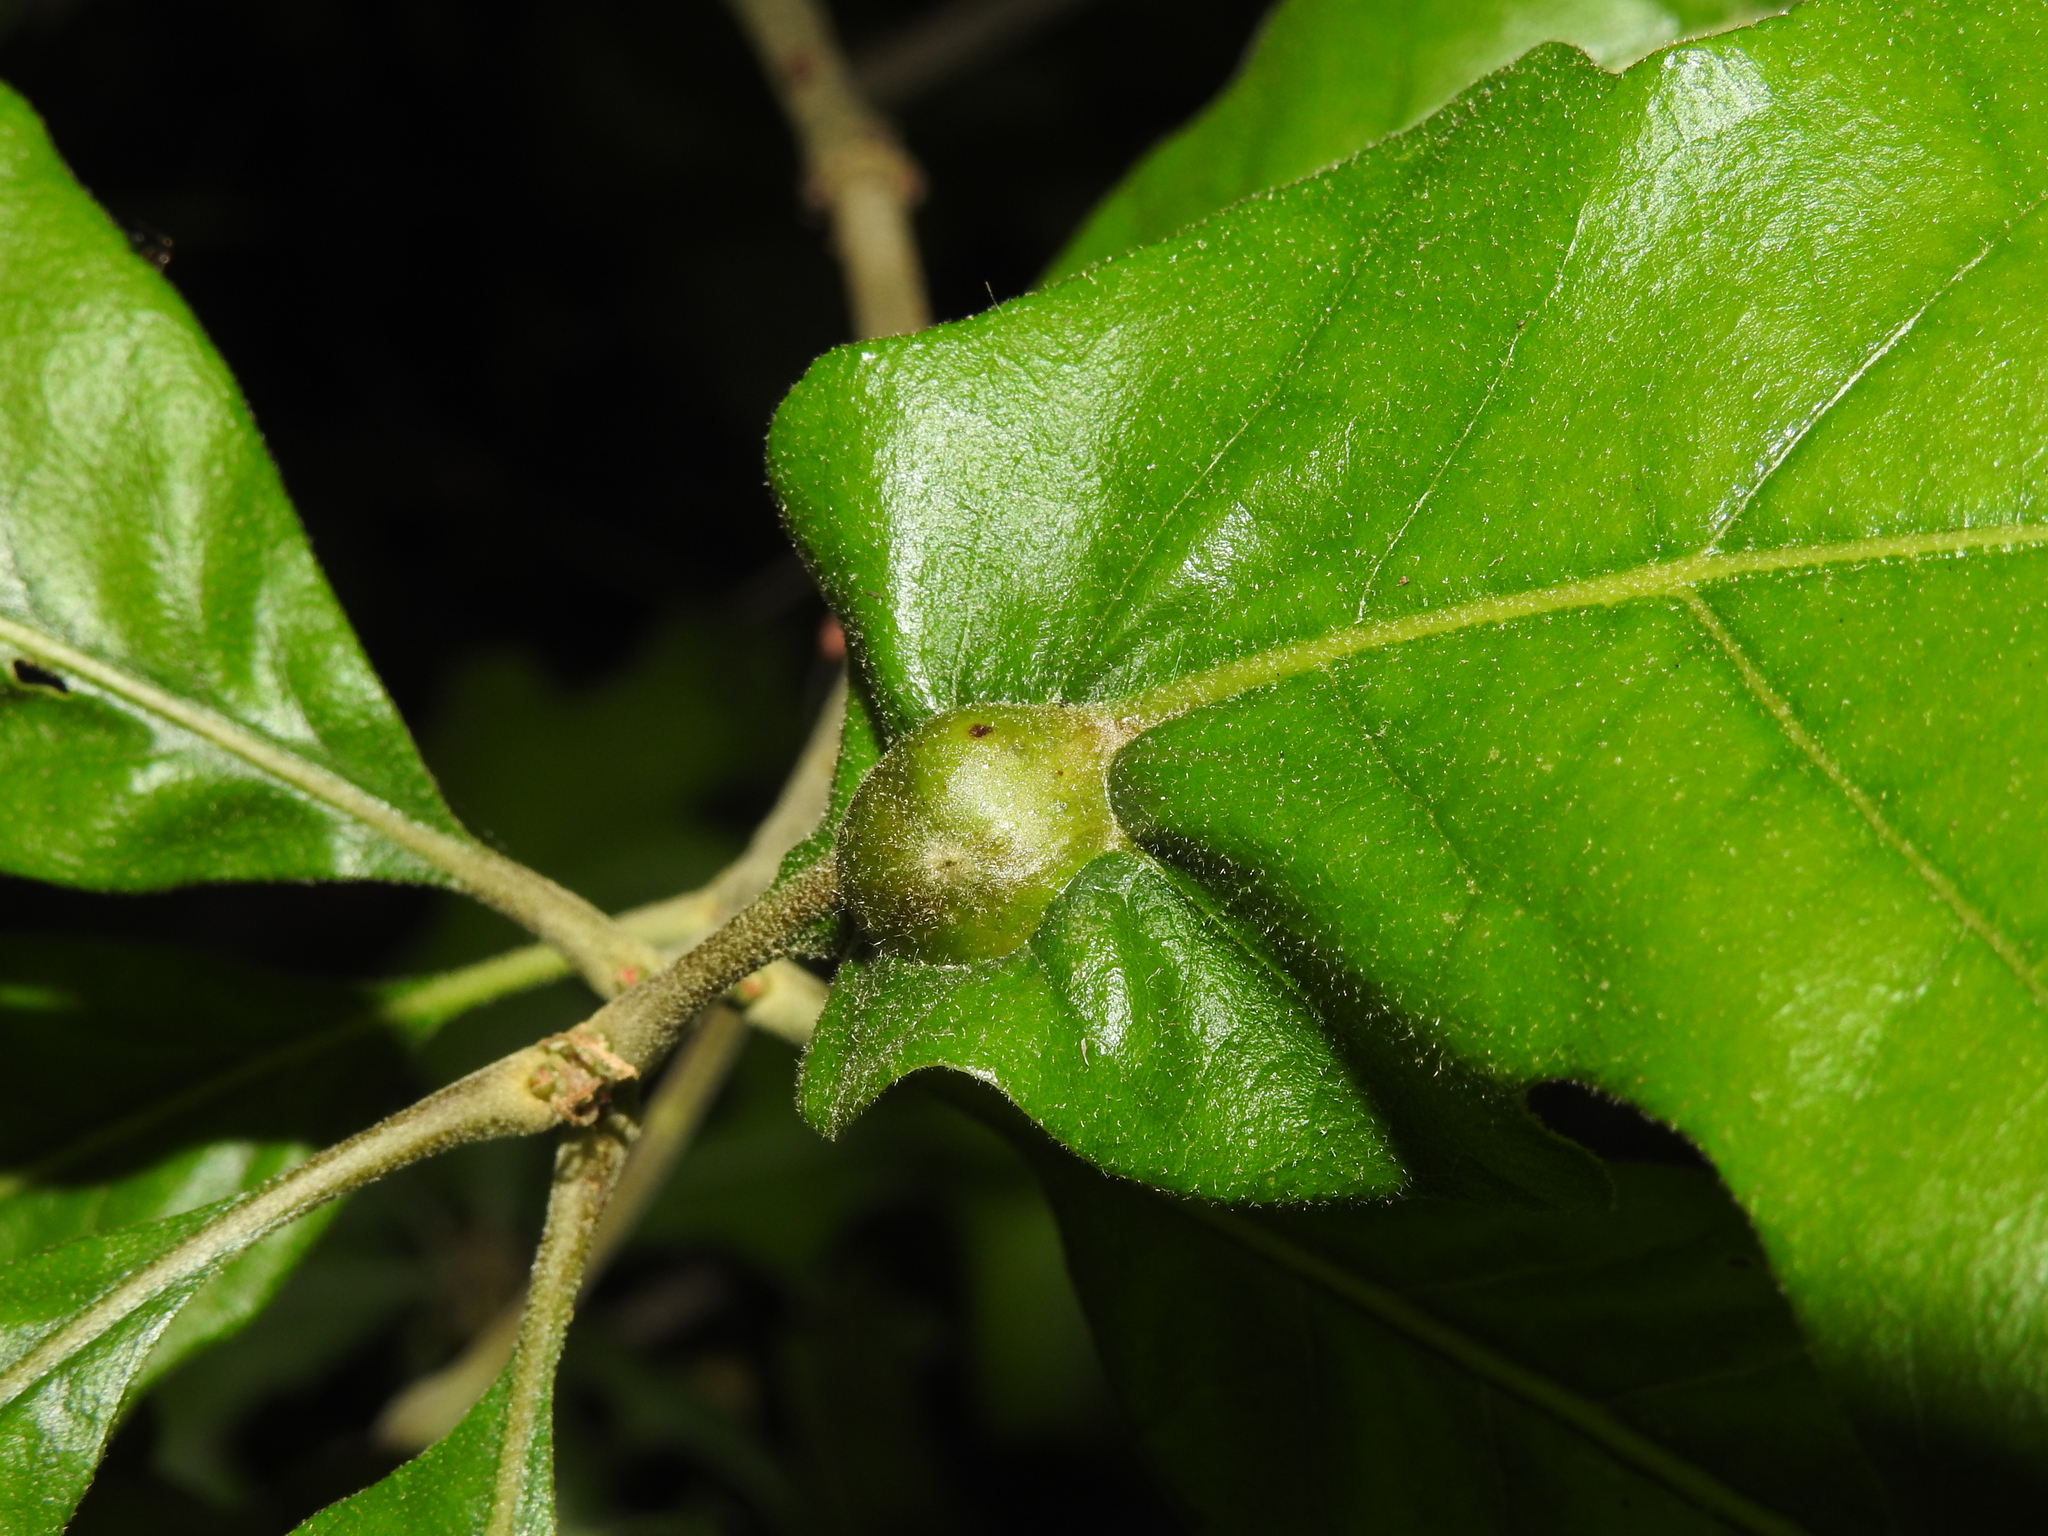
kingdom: Animalia
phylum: Arthropoda
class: Insecta
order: Hymenoptera
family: Cynipidae
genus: Andricus
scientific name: Andricus
